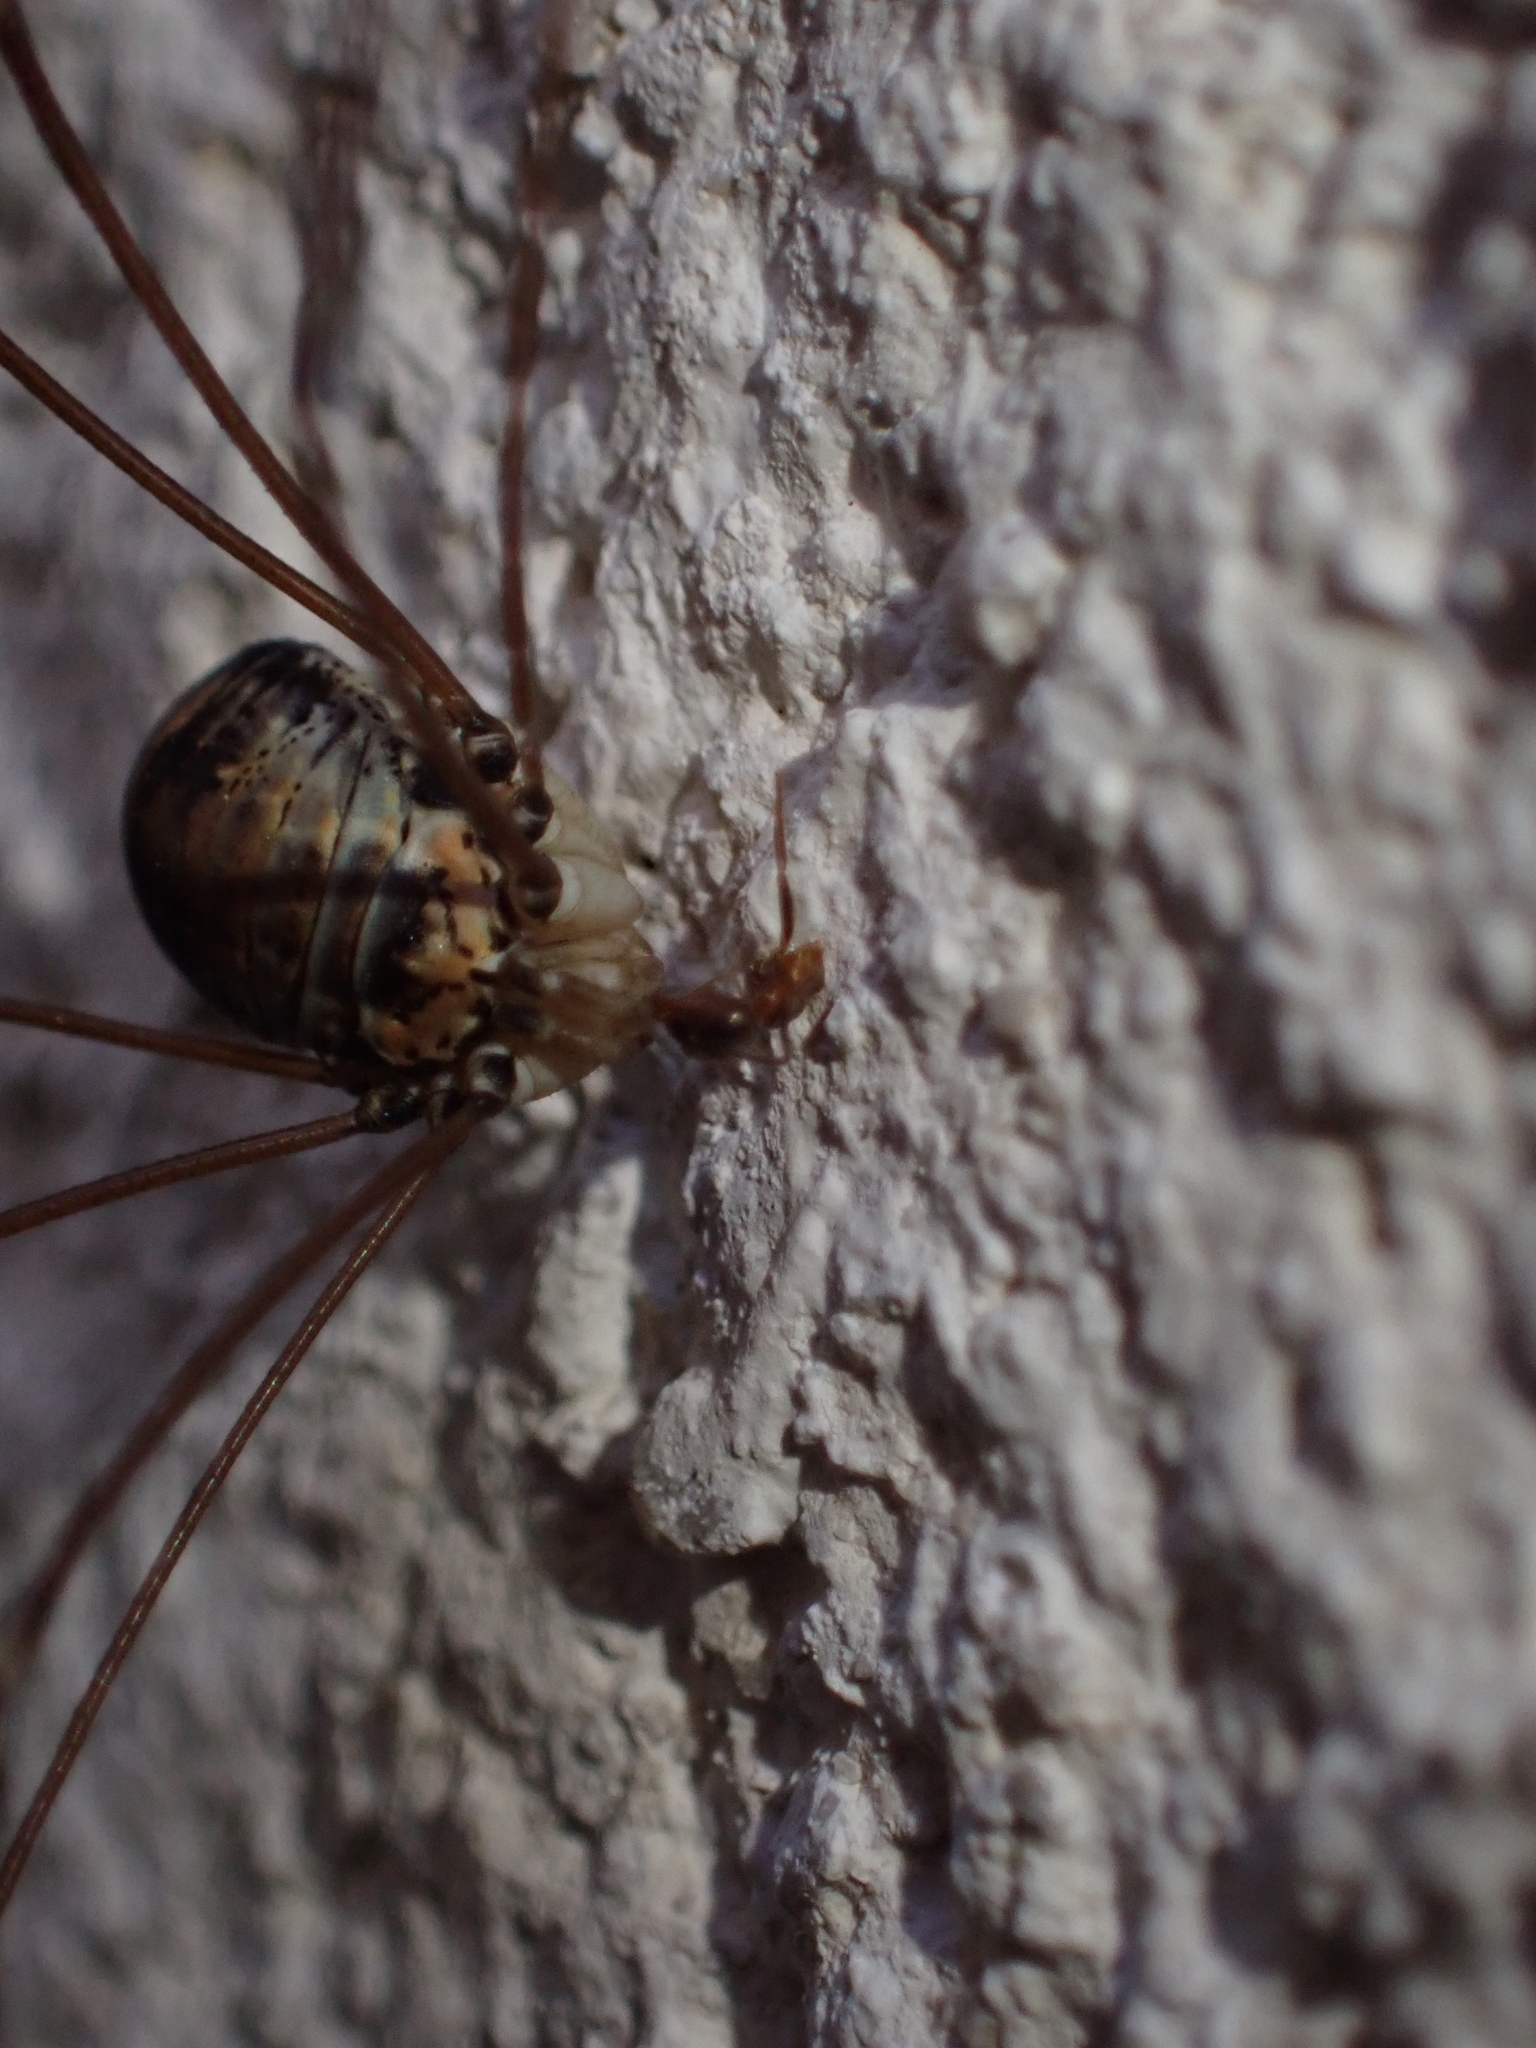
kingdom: Animalia
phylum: Arthropoda
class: Arachnida
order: Opiliones
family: Sclerosomatidae
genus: Leiobunum
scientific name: Leiobunum limbatum
